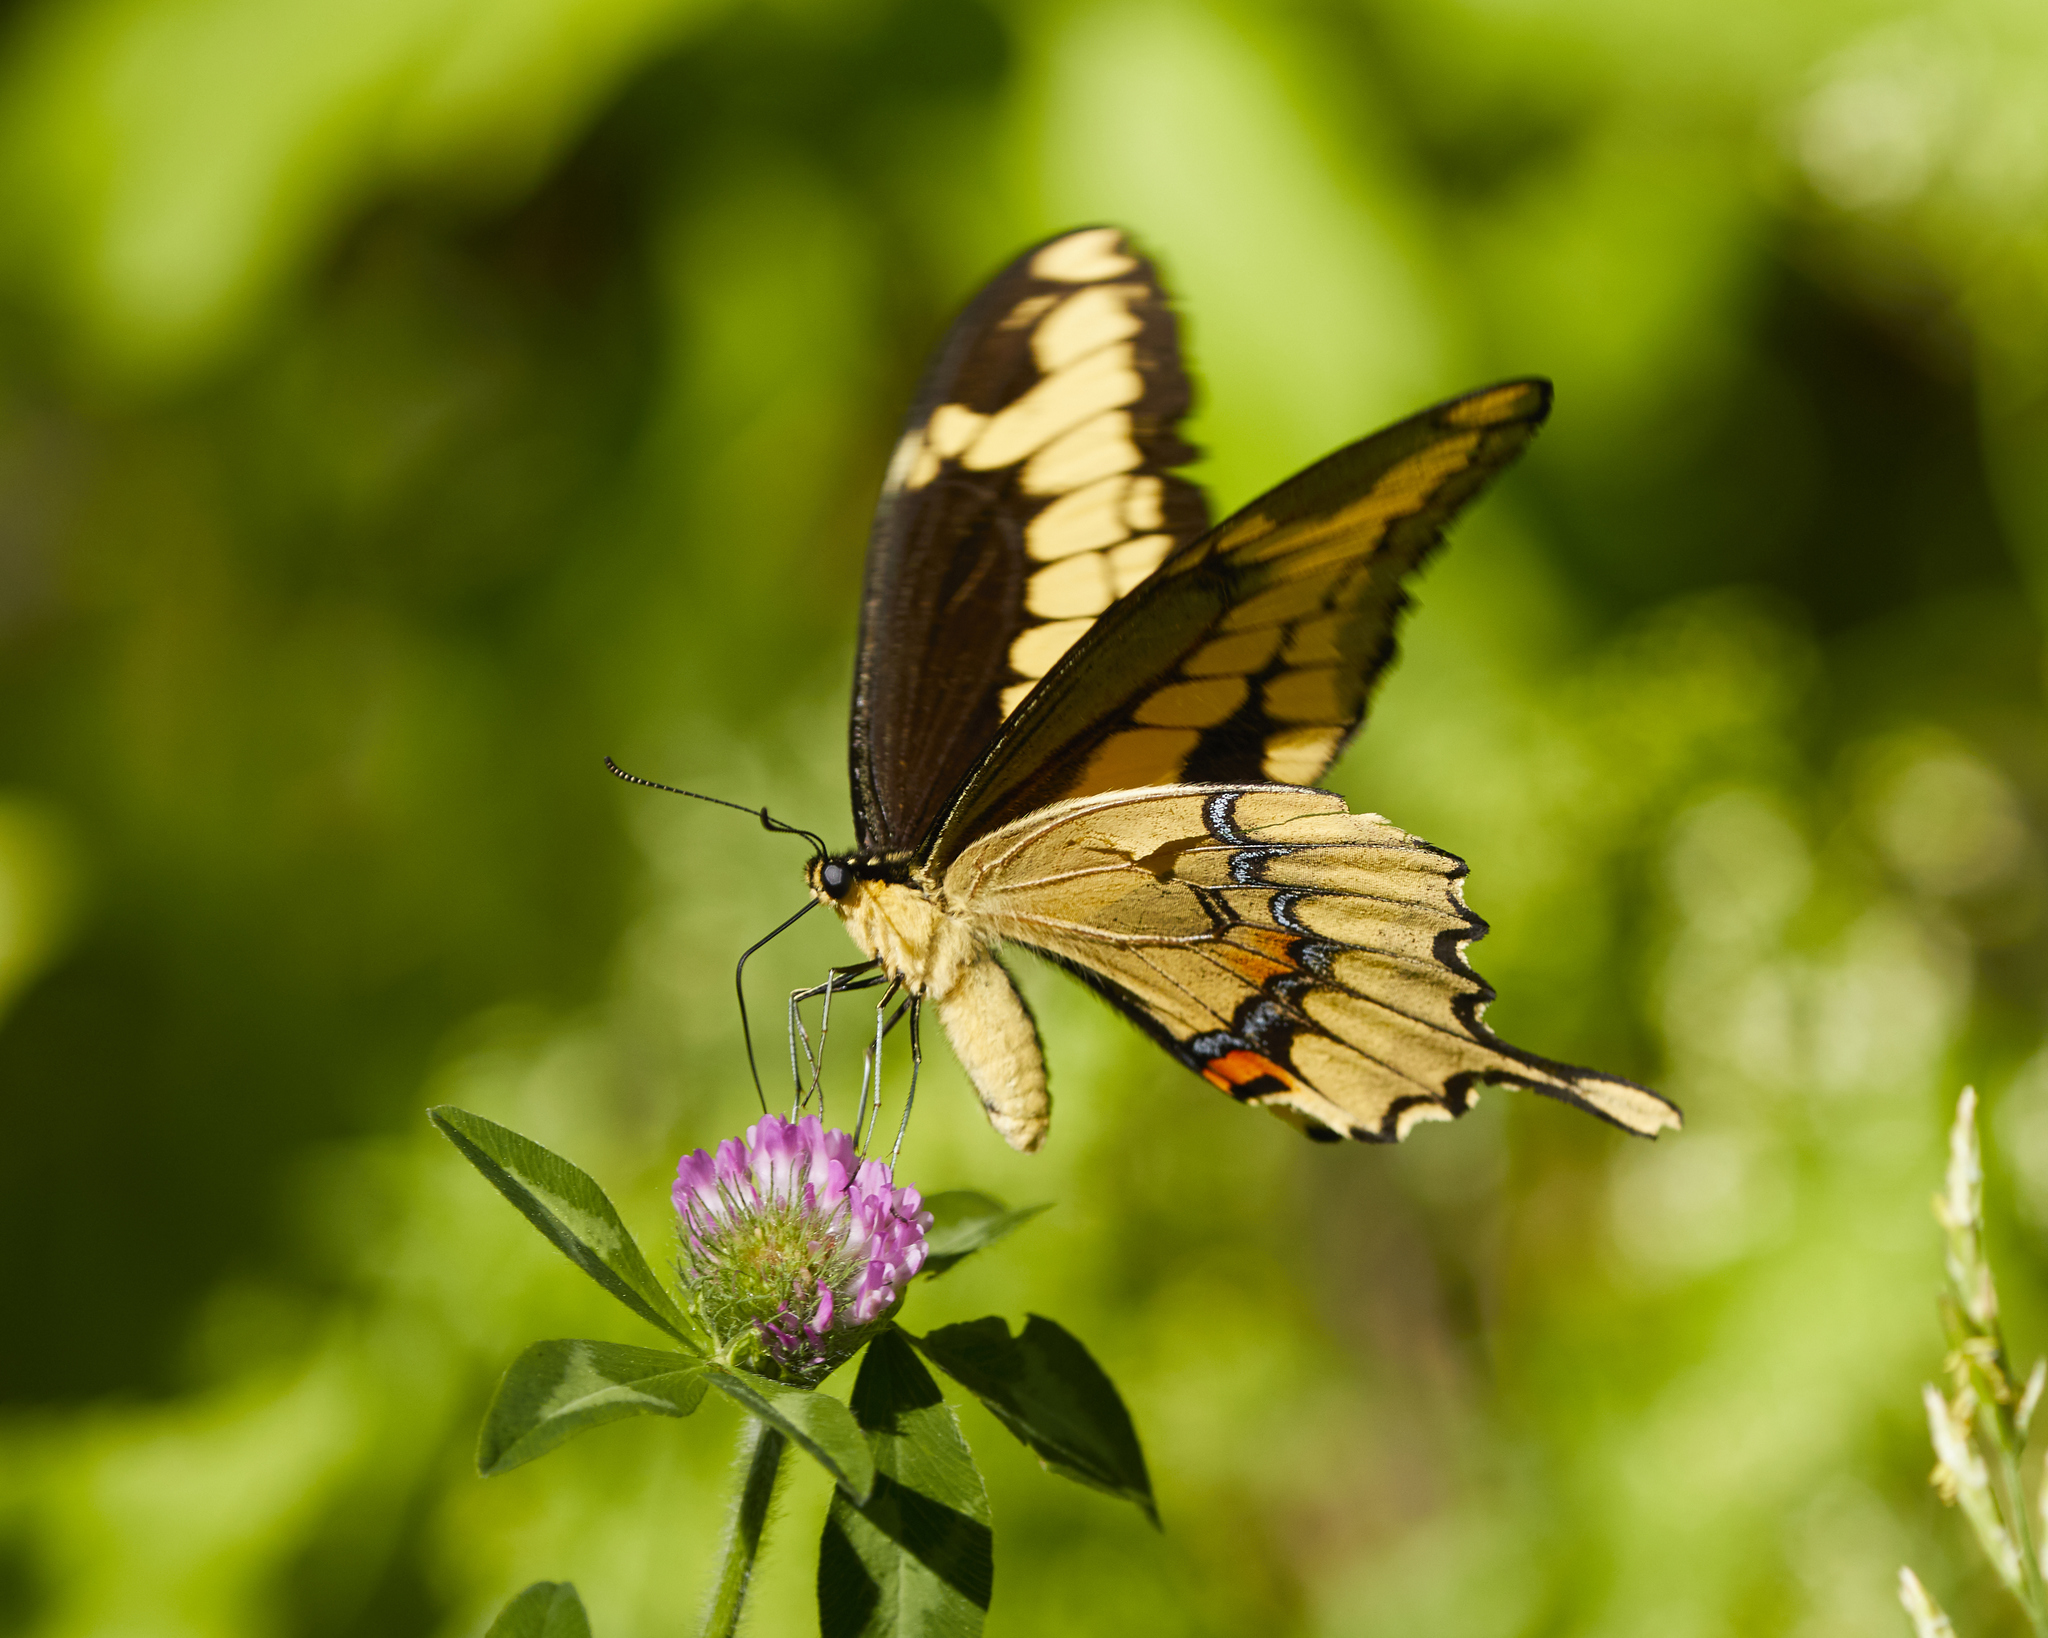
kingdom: Animalia
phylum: Arthropoda
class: Insecta
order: Lepidoptera
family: Papilionidae
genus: Papilio
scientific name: Papilio cresphontes
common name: Giant swallowtail
